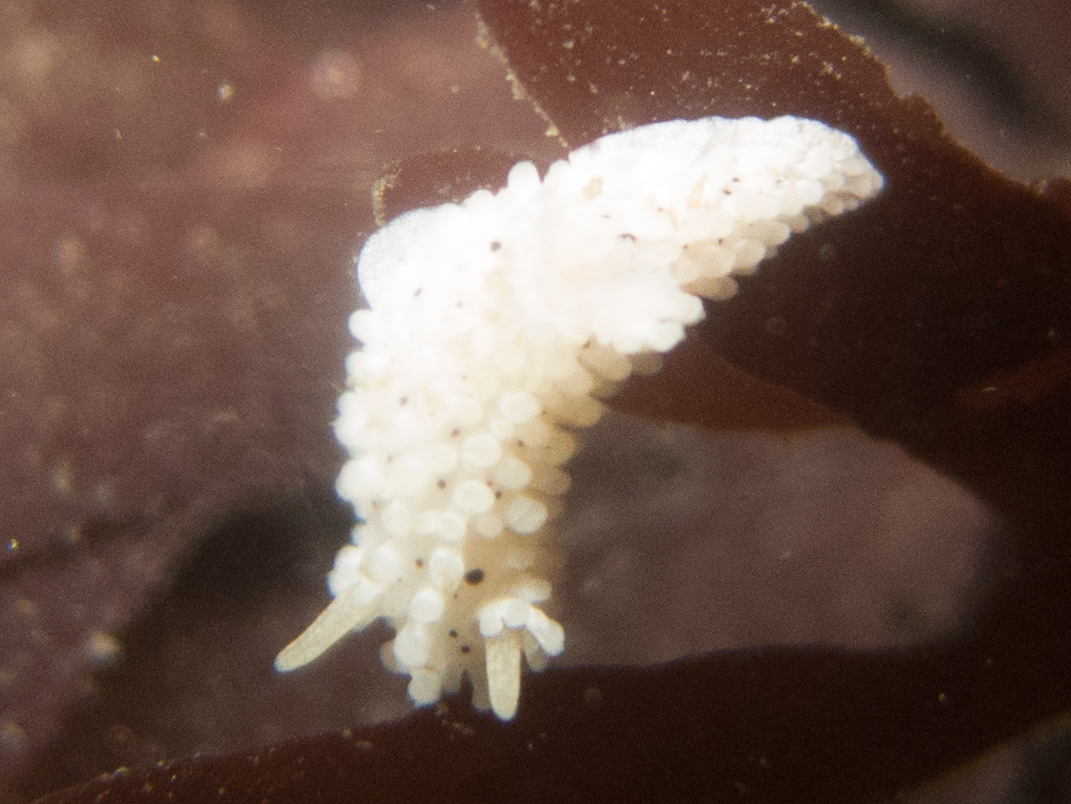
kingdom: Animalia
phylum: Mollusca
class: Gastropoda
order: Nudibranchia
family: Aegiridae
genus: Aegires
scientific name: Aegires albopunctatus
